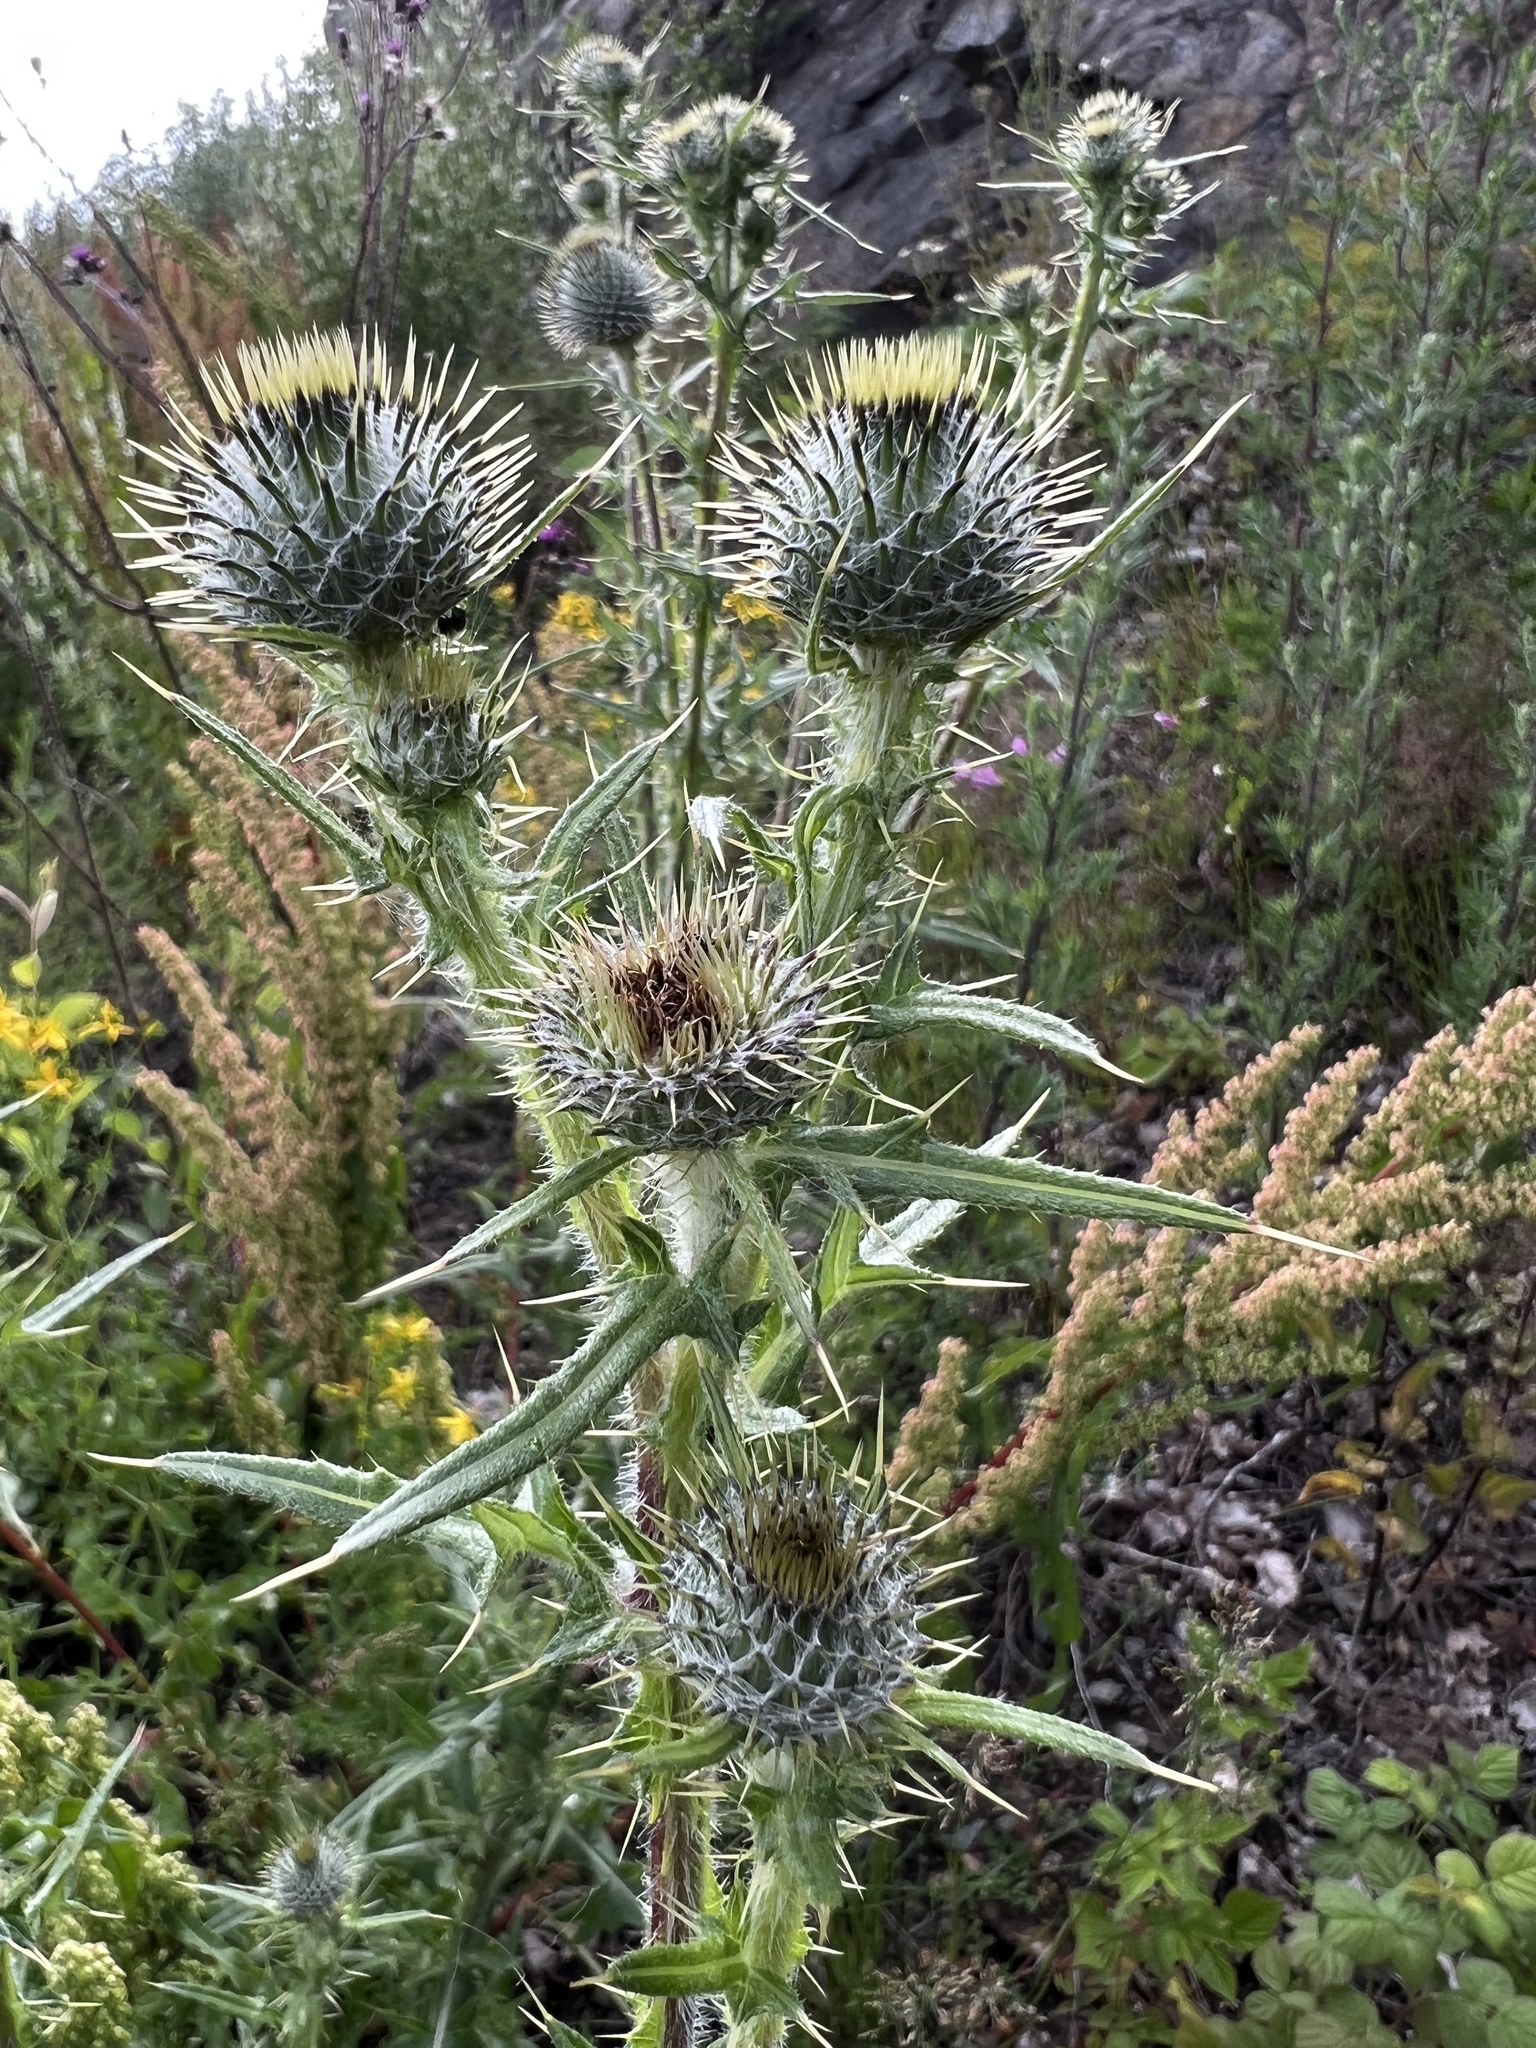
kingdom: Plantae
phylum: Tracheophyta
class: Magnoliopsida
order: Asterales
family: Asteraceae
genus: Cirsium
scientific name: Cirsium vulgare
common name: Bull thistle
